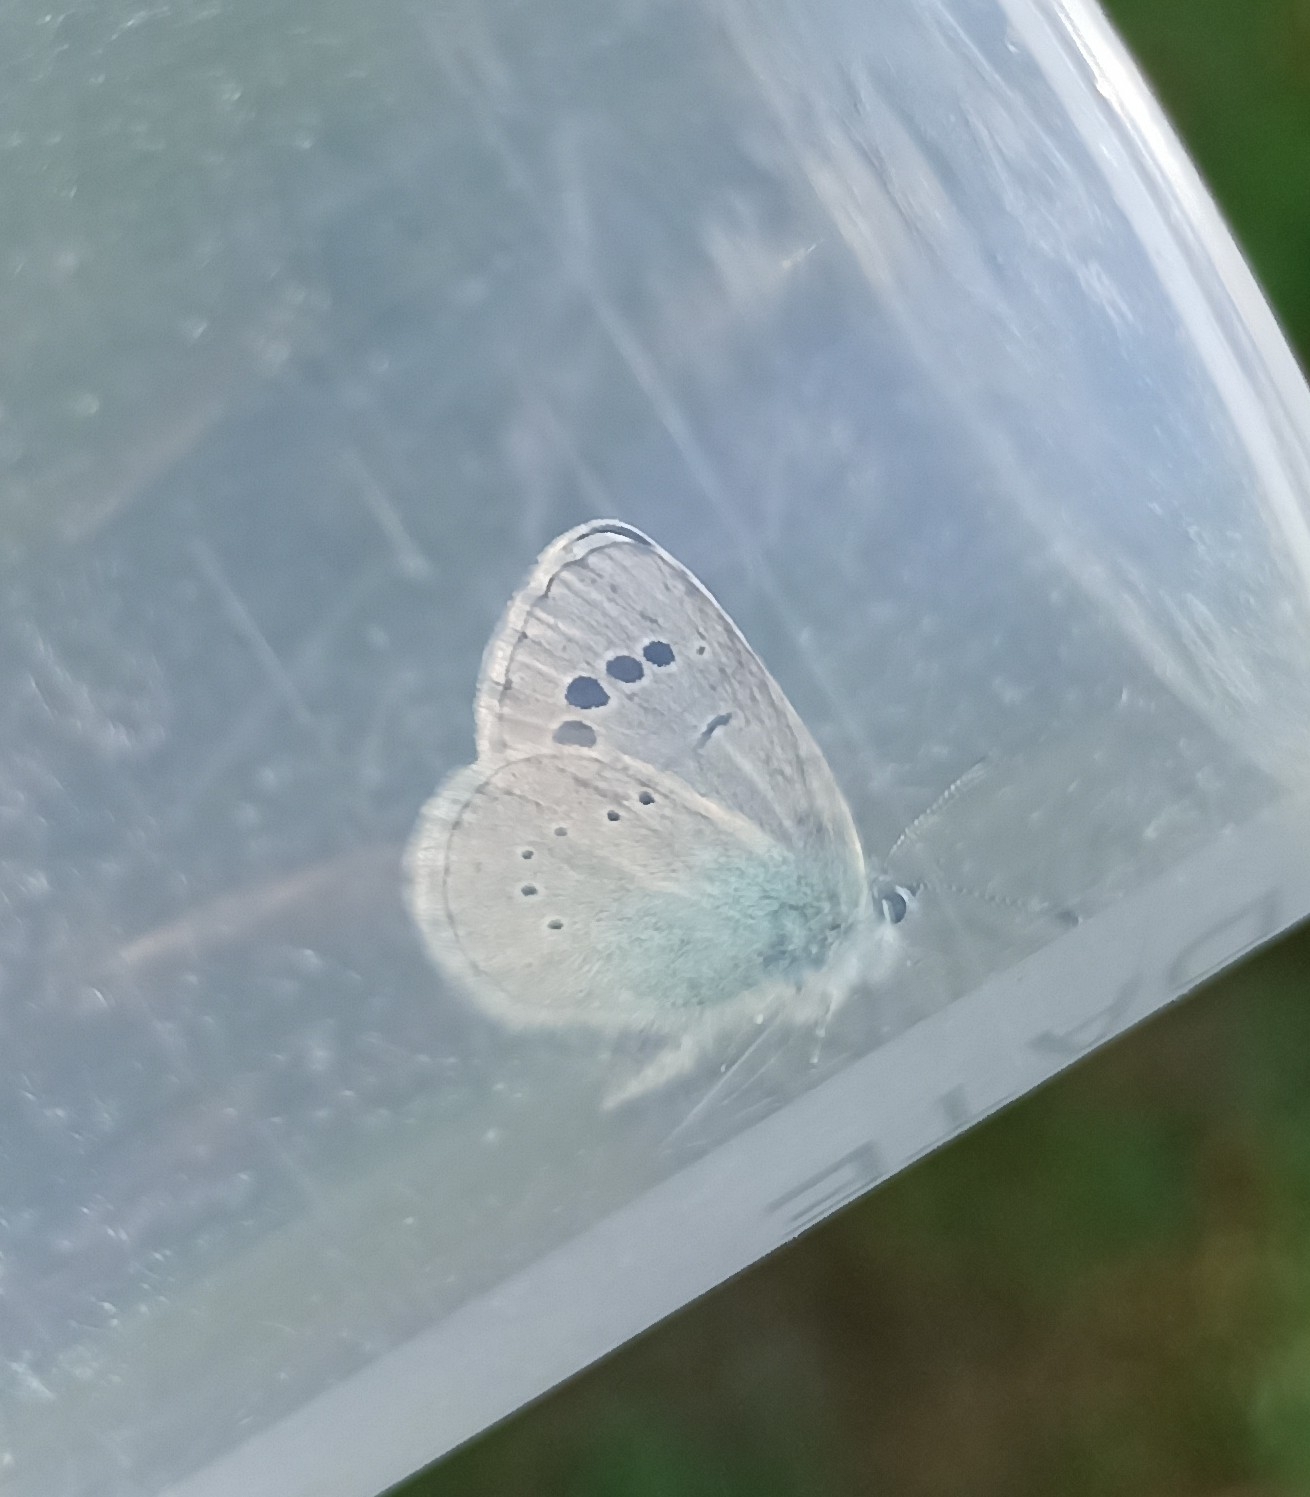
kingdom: Animalia
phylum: Arthropoda
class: Insecta
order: Lepidoptera
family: Lycaenidae
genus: Glaucopsyche
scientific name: Glaucopsyche alexis
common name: Green-underside blue
